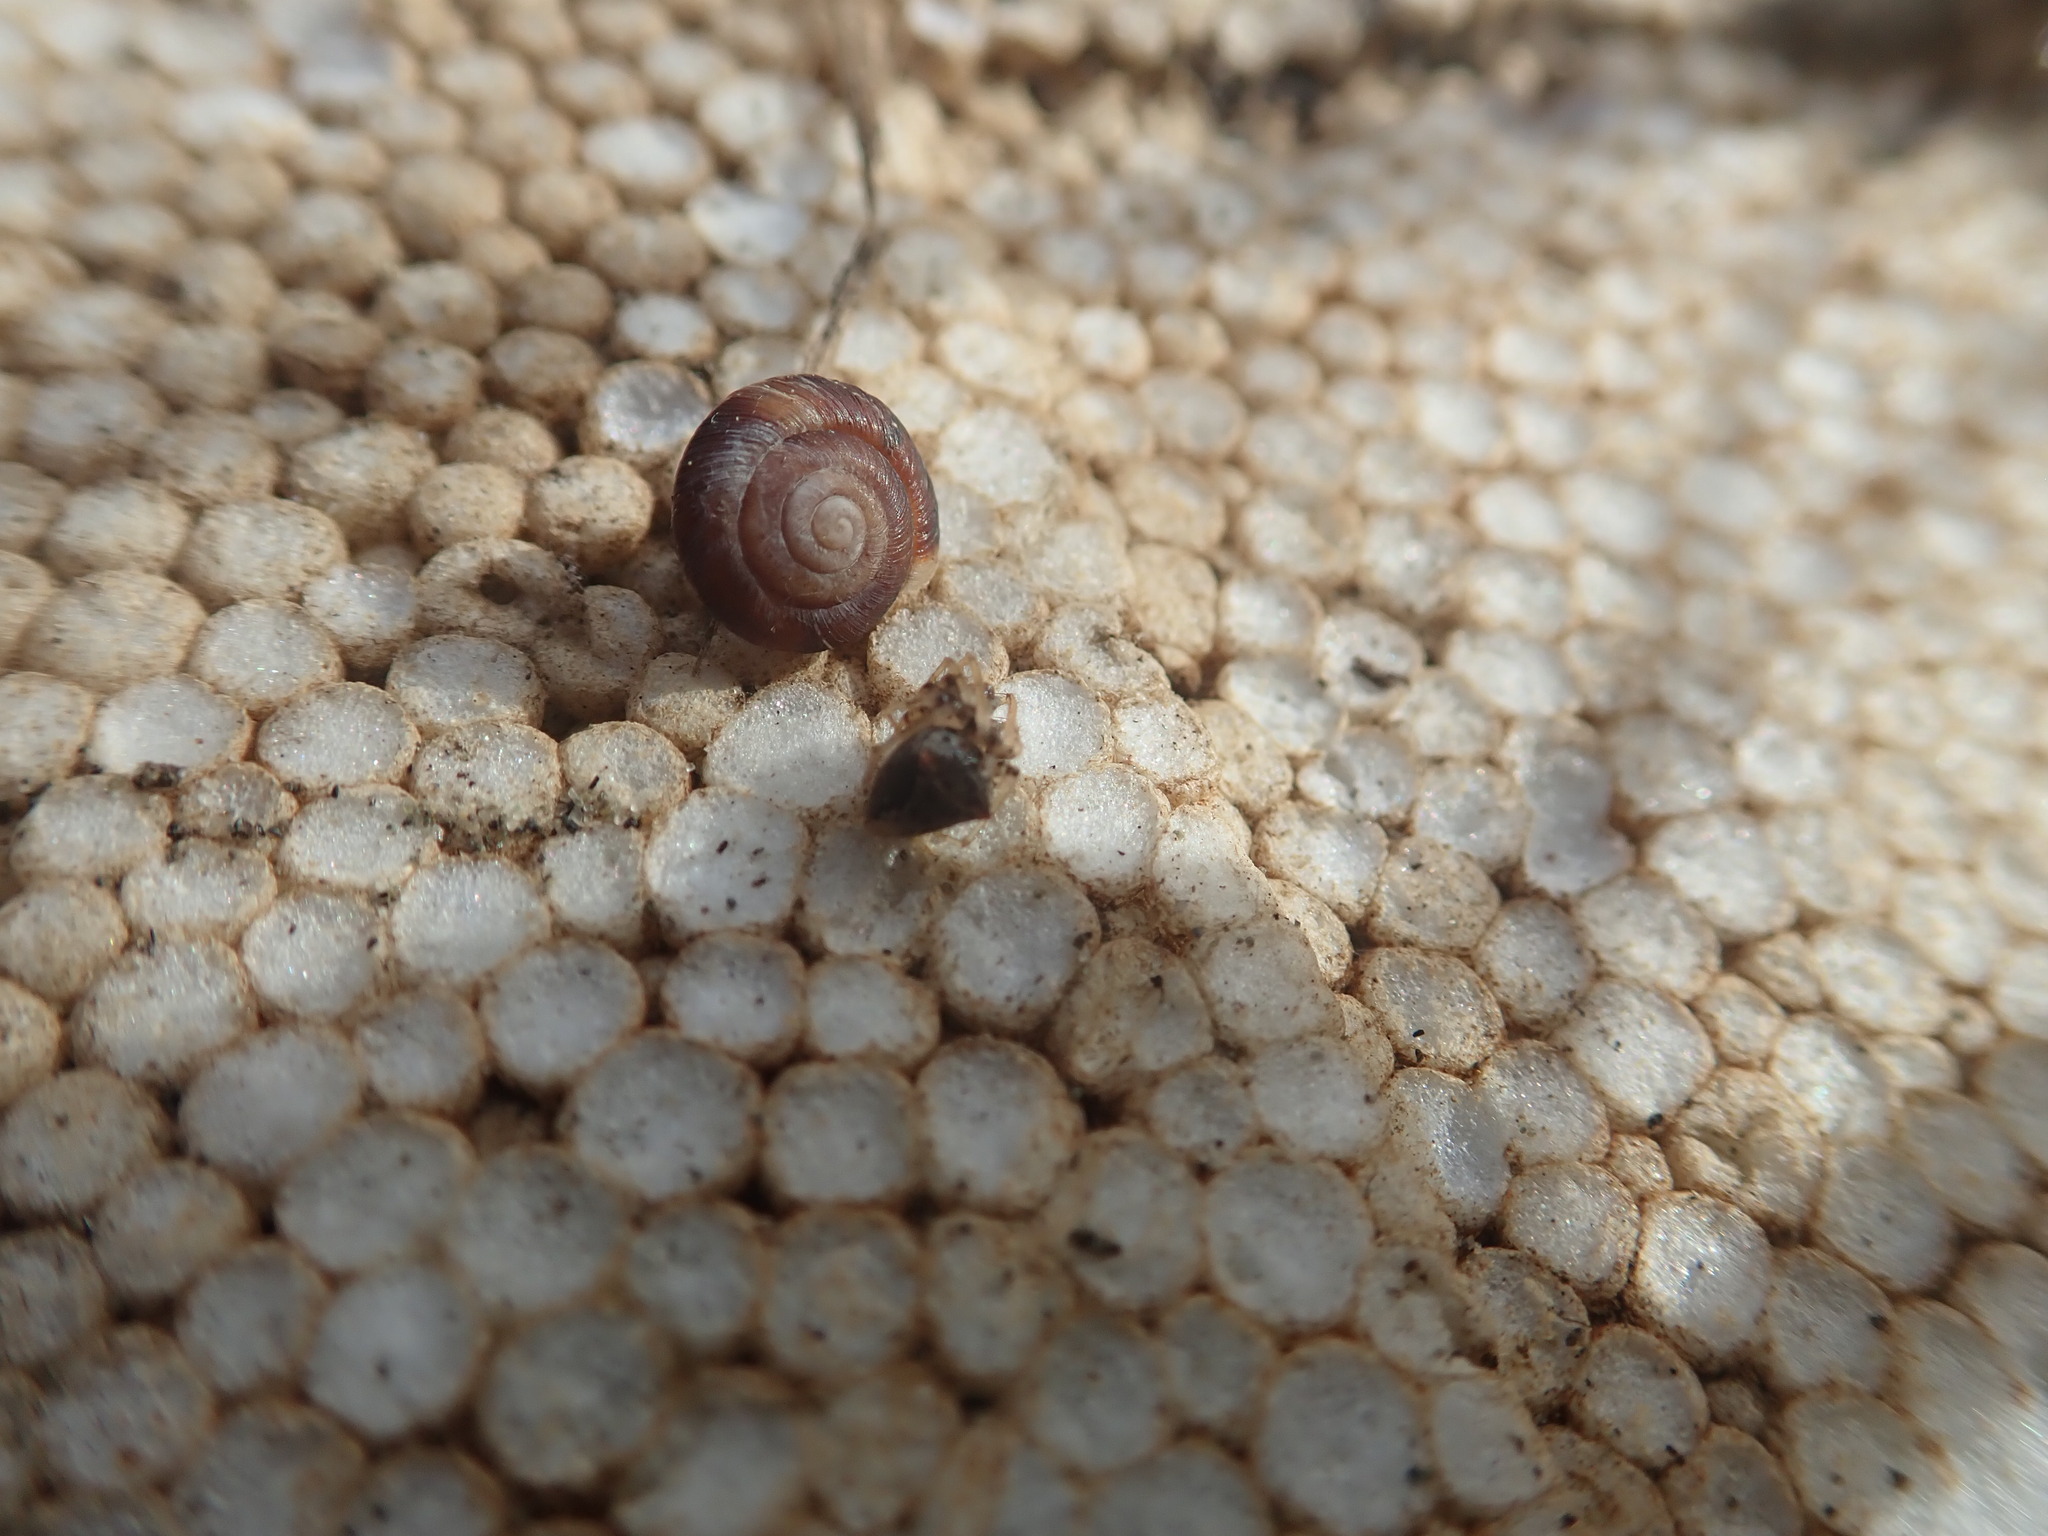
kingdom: Animalia
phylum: Mollusca
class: Gastropoda
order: Stylommatophora
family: Geomitridae
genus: Xeroplexa
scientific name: Xeroplexa intersecta
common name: Wrinkled snail
